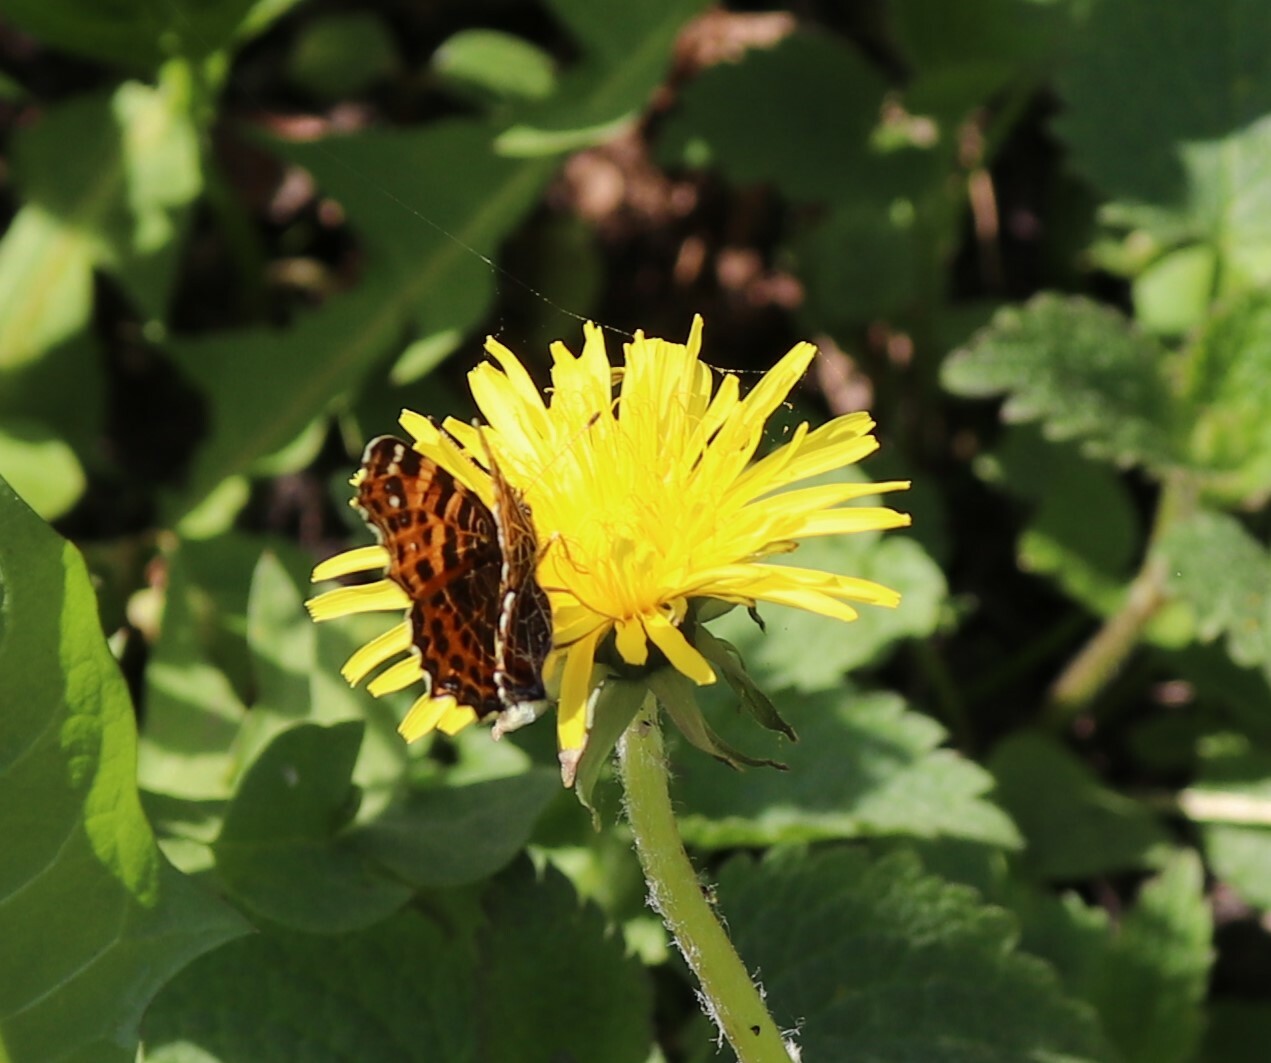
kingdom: Animalia
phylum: Arthropoda
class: Insecta
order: Lepidoptera
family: Nymphalidae
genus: Araschnia
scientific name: Araschnia levana
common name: Map butterfly
